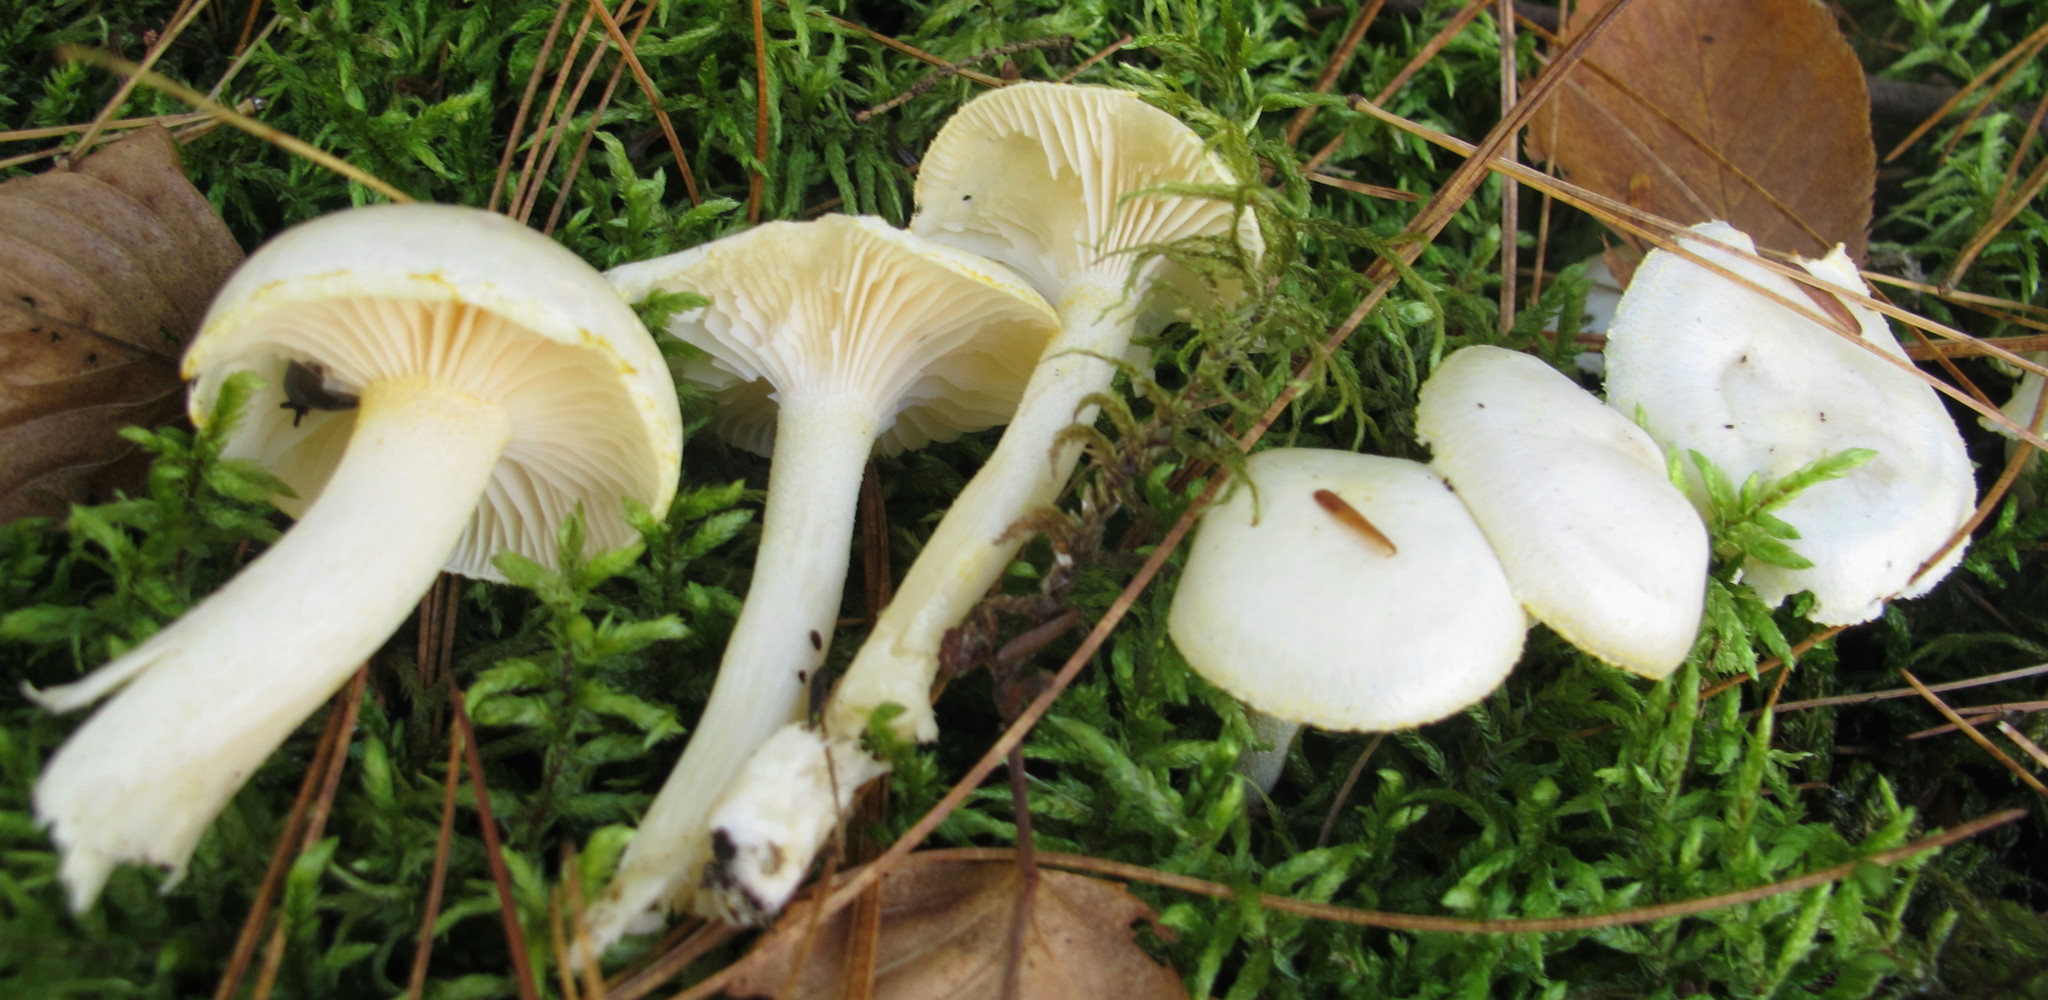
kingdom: Fungi
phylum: Basidiomycota
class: Agaricomycetes
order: Agaricales
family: Hygrophoraceae
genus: Hygrophorus
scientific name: Hygrophorus chrysodon
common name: Gold flecked woodwax
